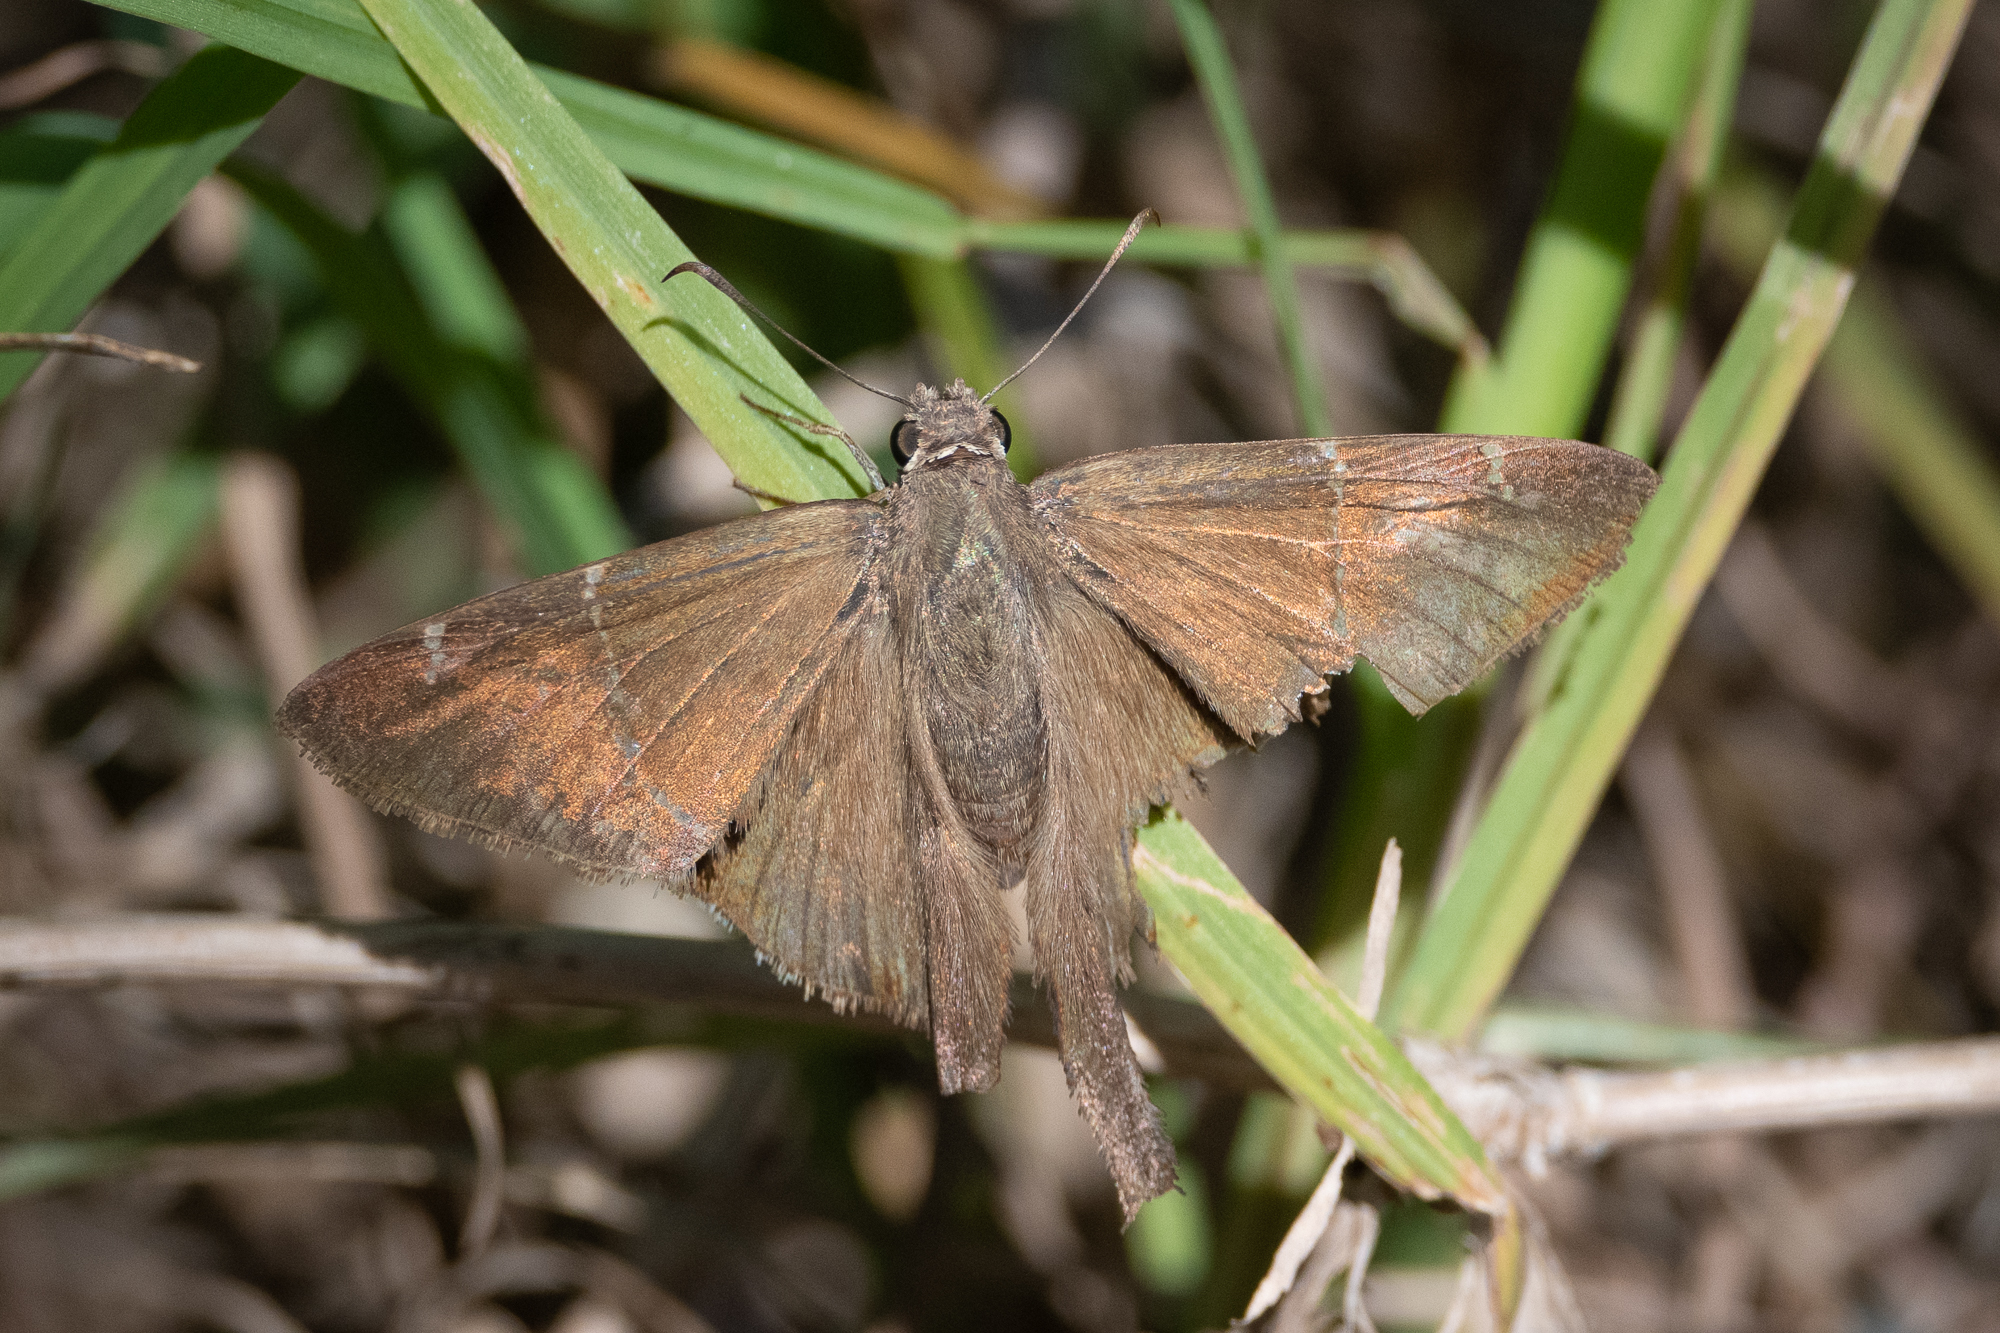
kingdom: Animalia
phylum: Arthropoda
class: Insecta
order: Lepidoptera
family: Hesperiidae
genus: Urbanus
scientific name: Urbanus procne
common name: Brown longtail
